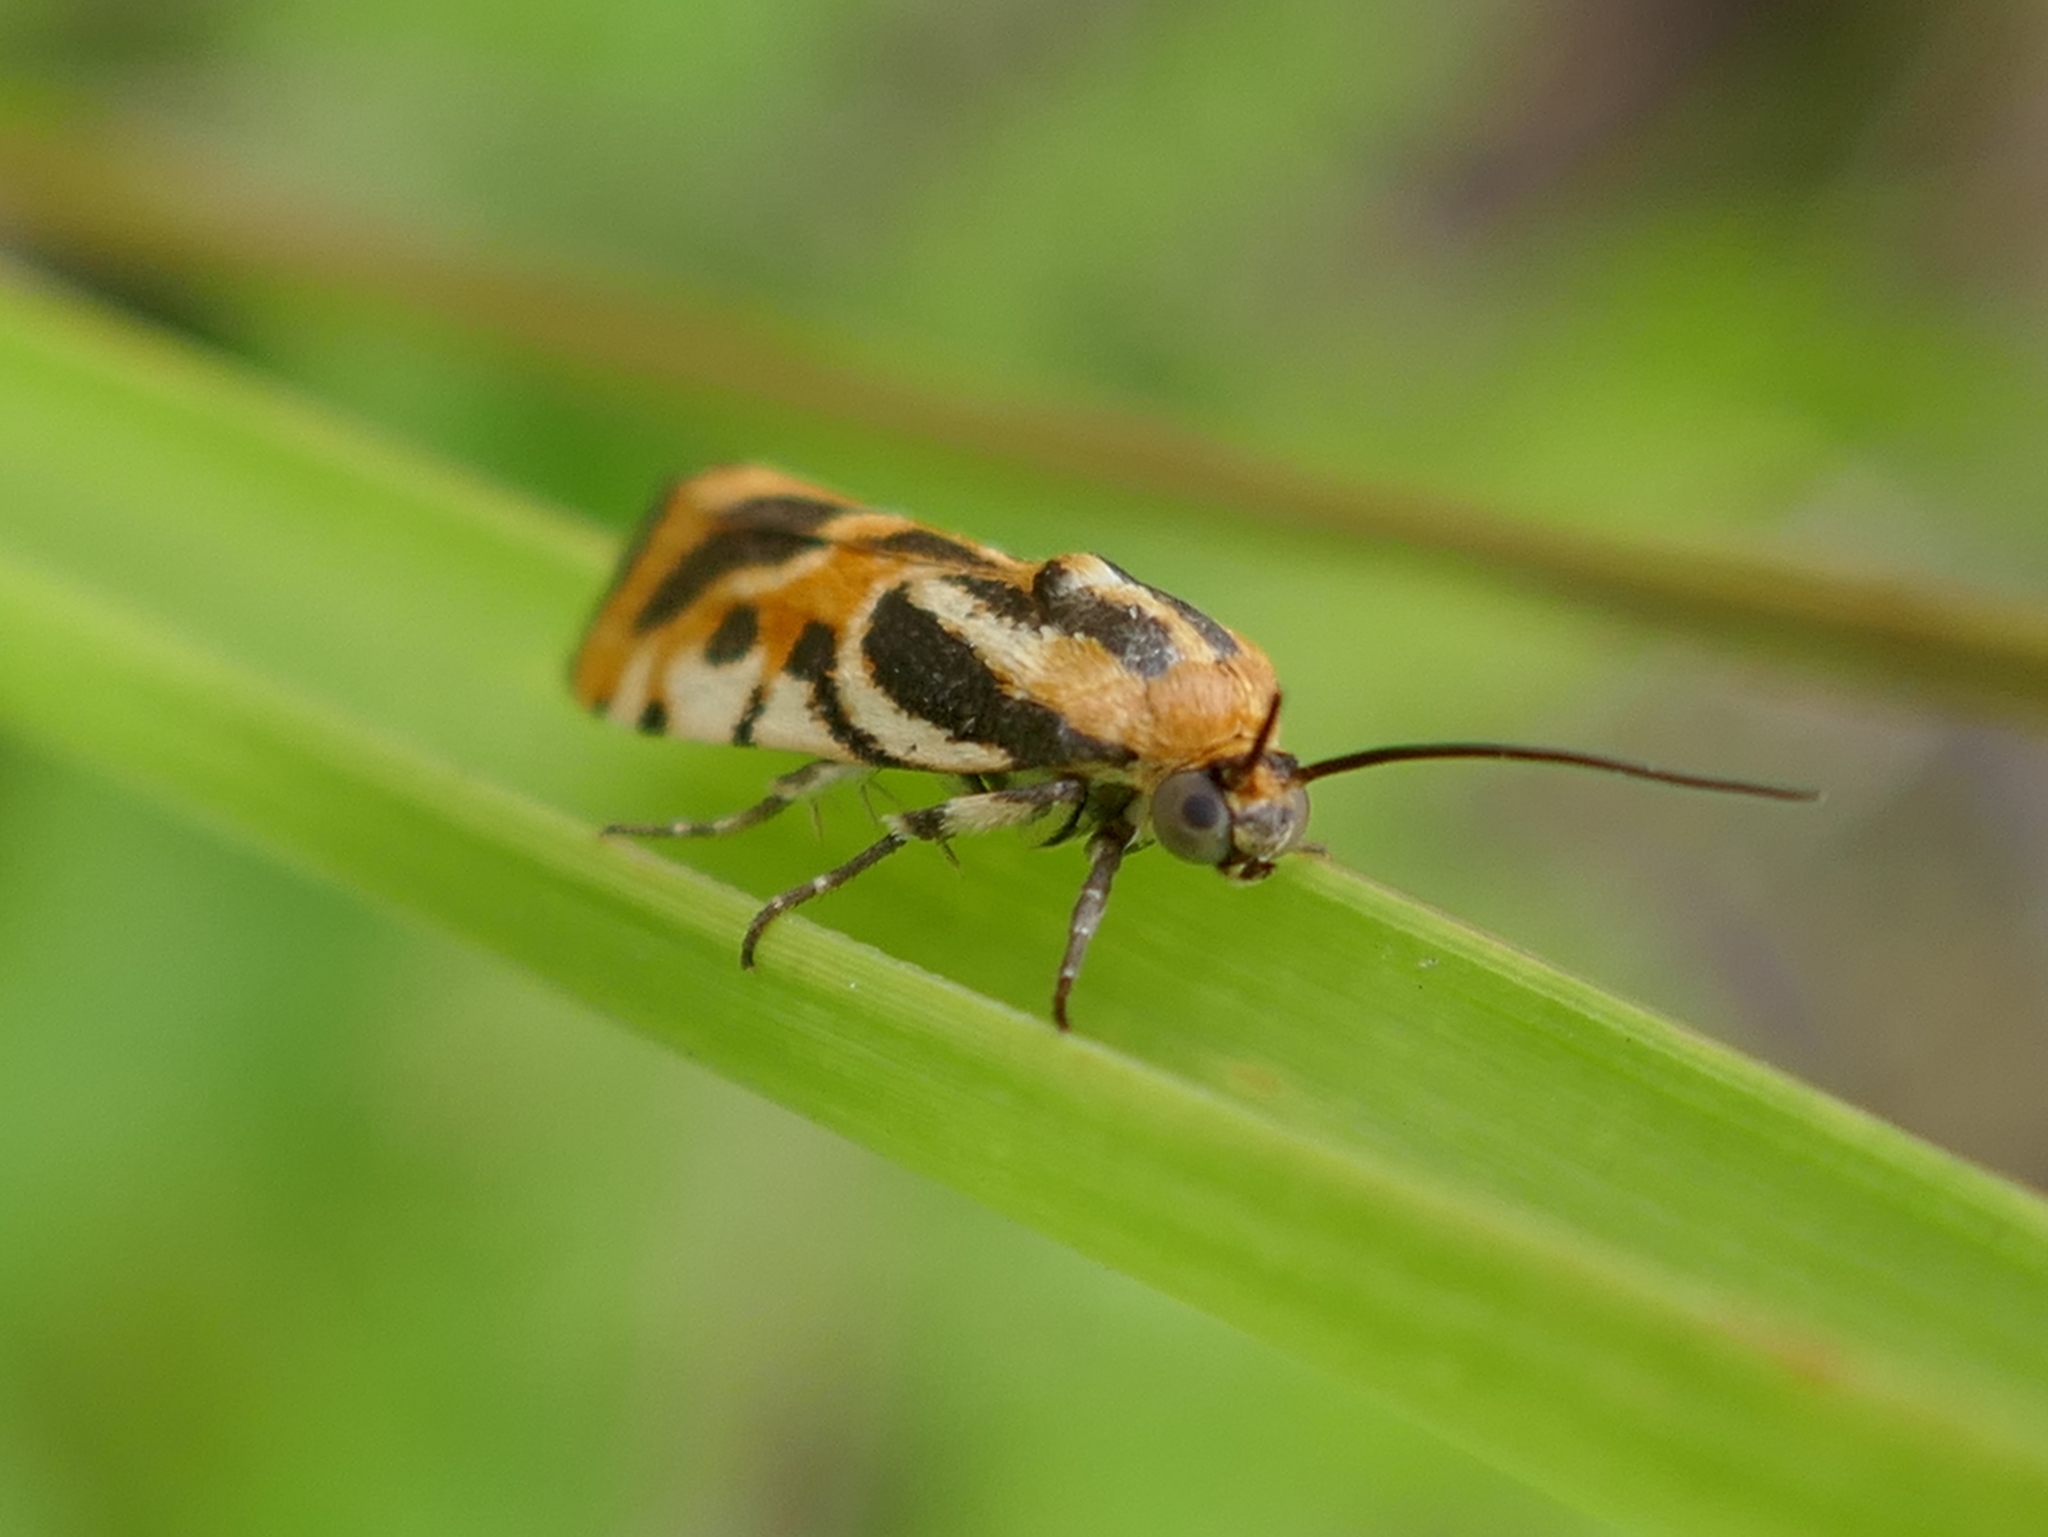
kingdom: Animalia
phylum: Arthropoda
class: Insecta
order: Lepidoptera
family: Noctuidae
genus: Acontia
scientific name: Acontia onagrus
